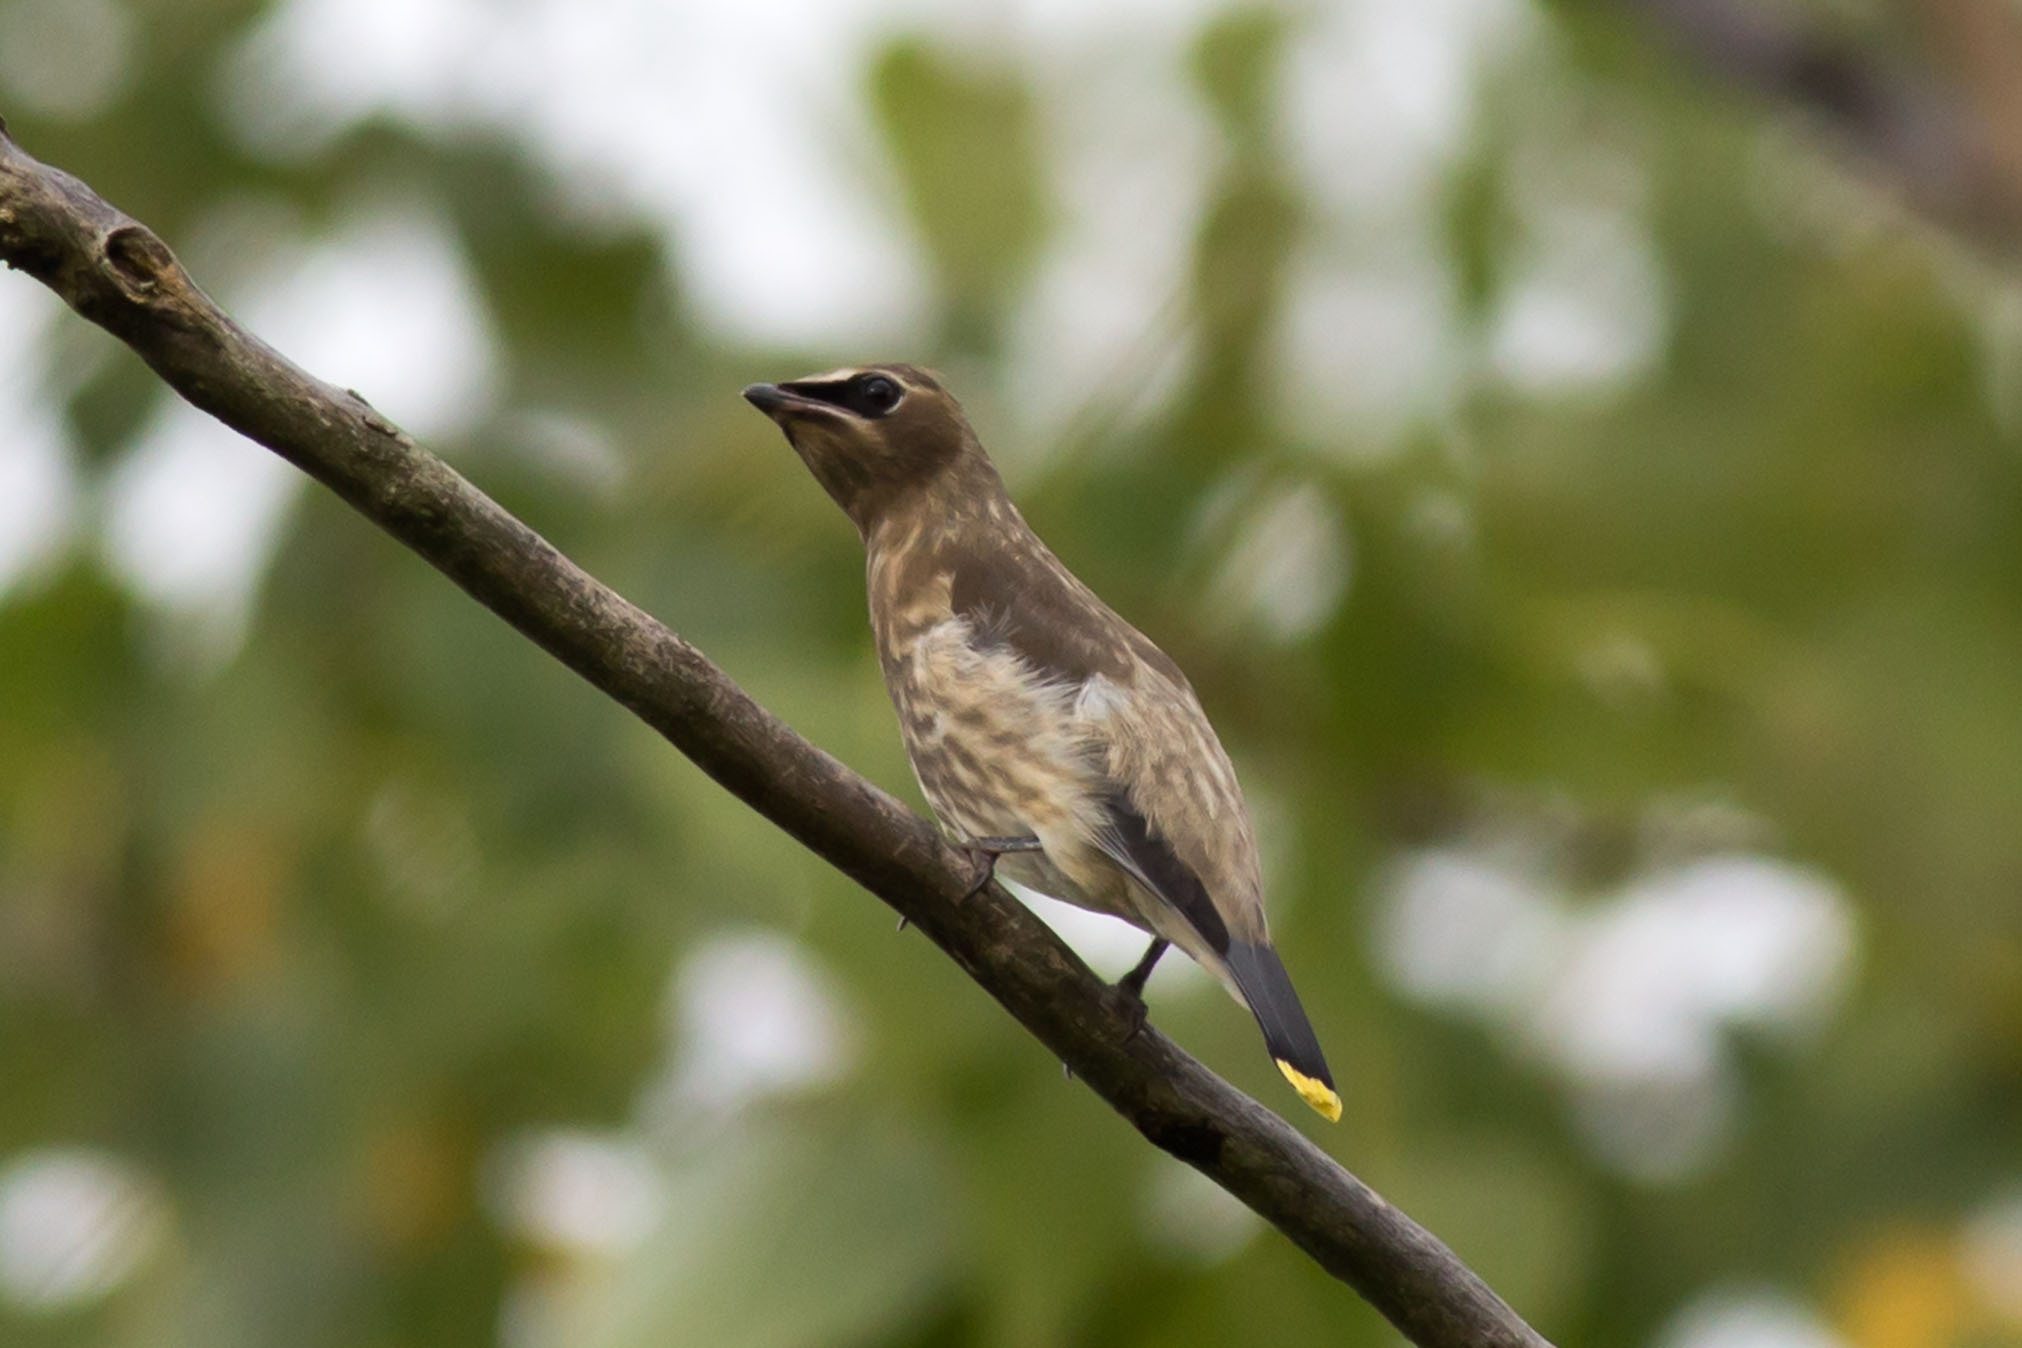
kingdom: Animalia
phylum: Chordata
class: Aves
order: Passeriformes
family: Bombycillidae
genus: Bombycilla
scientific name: Bombycilla cedrorum
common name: Cedar waxwing
